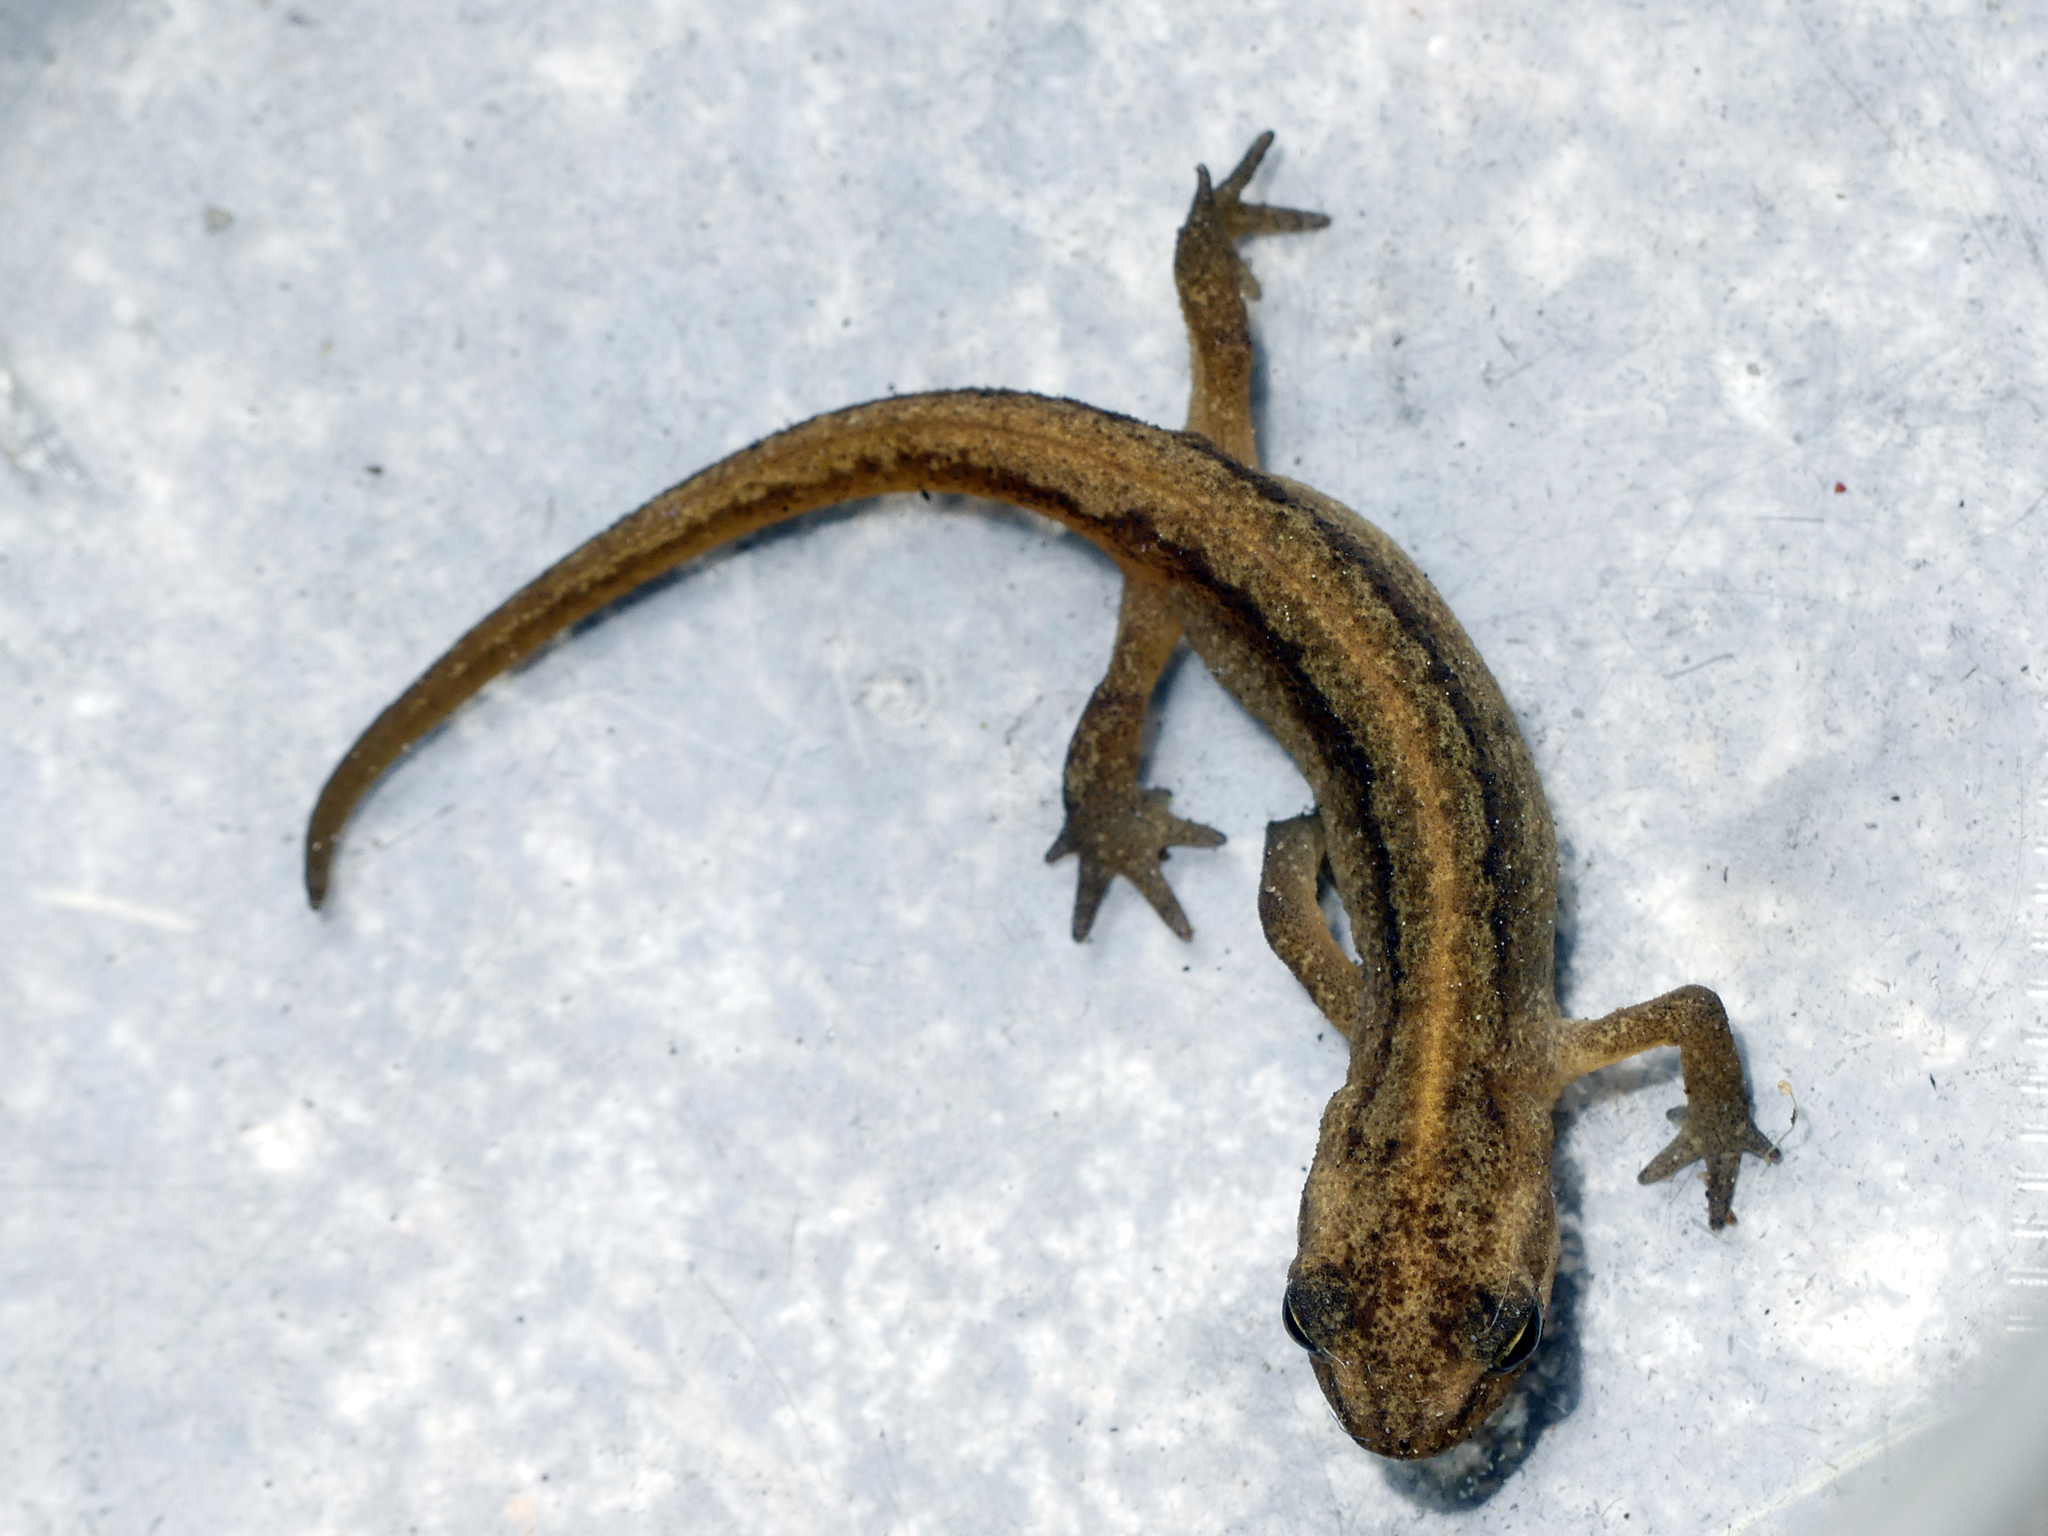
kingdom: Animalia
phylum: Chordata
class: Amphibia
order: Caudata
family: Salamandridae
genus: Lissotriton
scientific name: Lissotriton vulgaris
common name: Smooth newt
